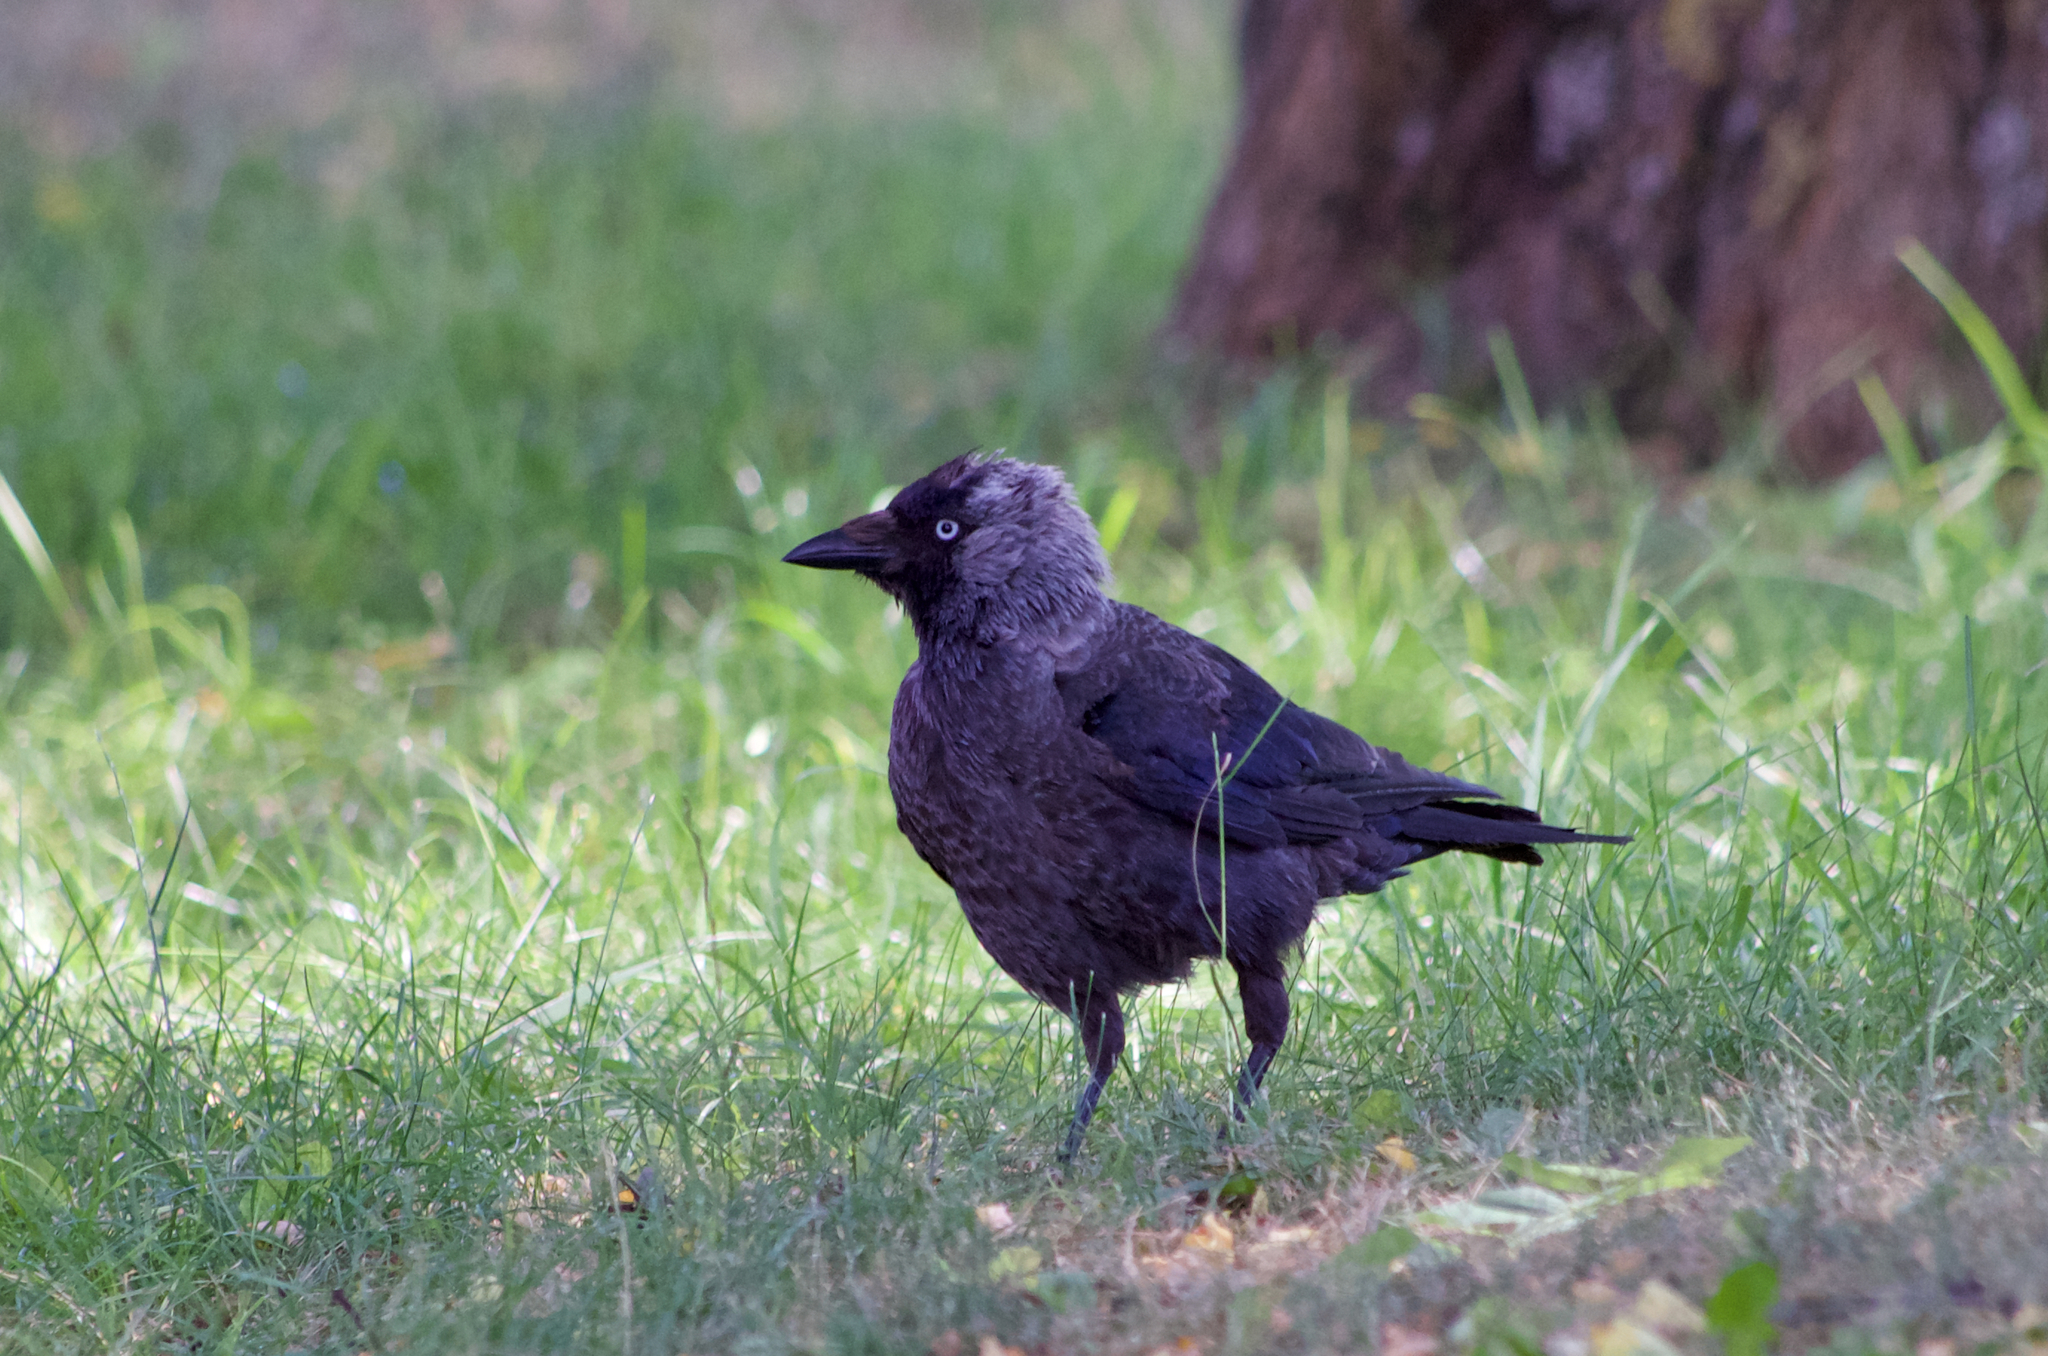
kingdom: Animalia
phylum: Chordata
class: Aves
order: Passeriformes
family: Corvidae
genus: Coloeus
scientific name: Coloeus monedula
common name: Western jackdaw
